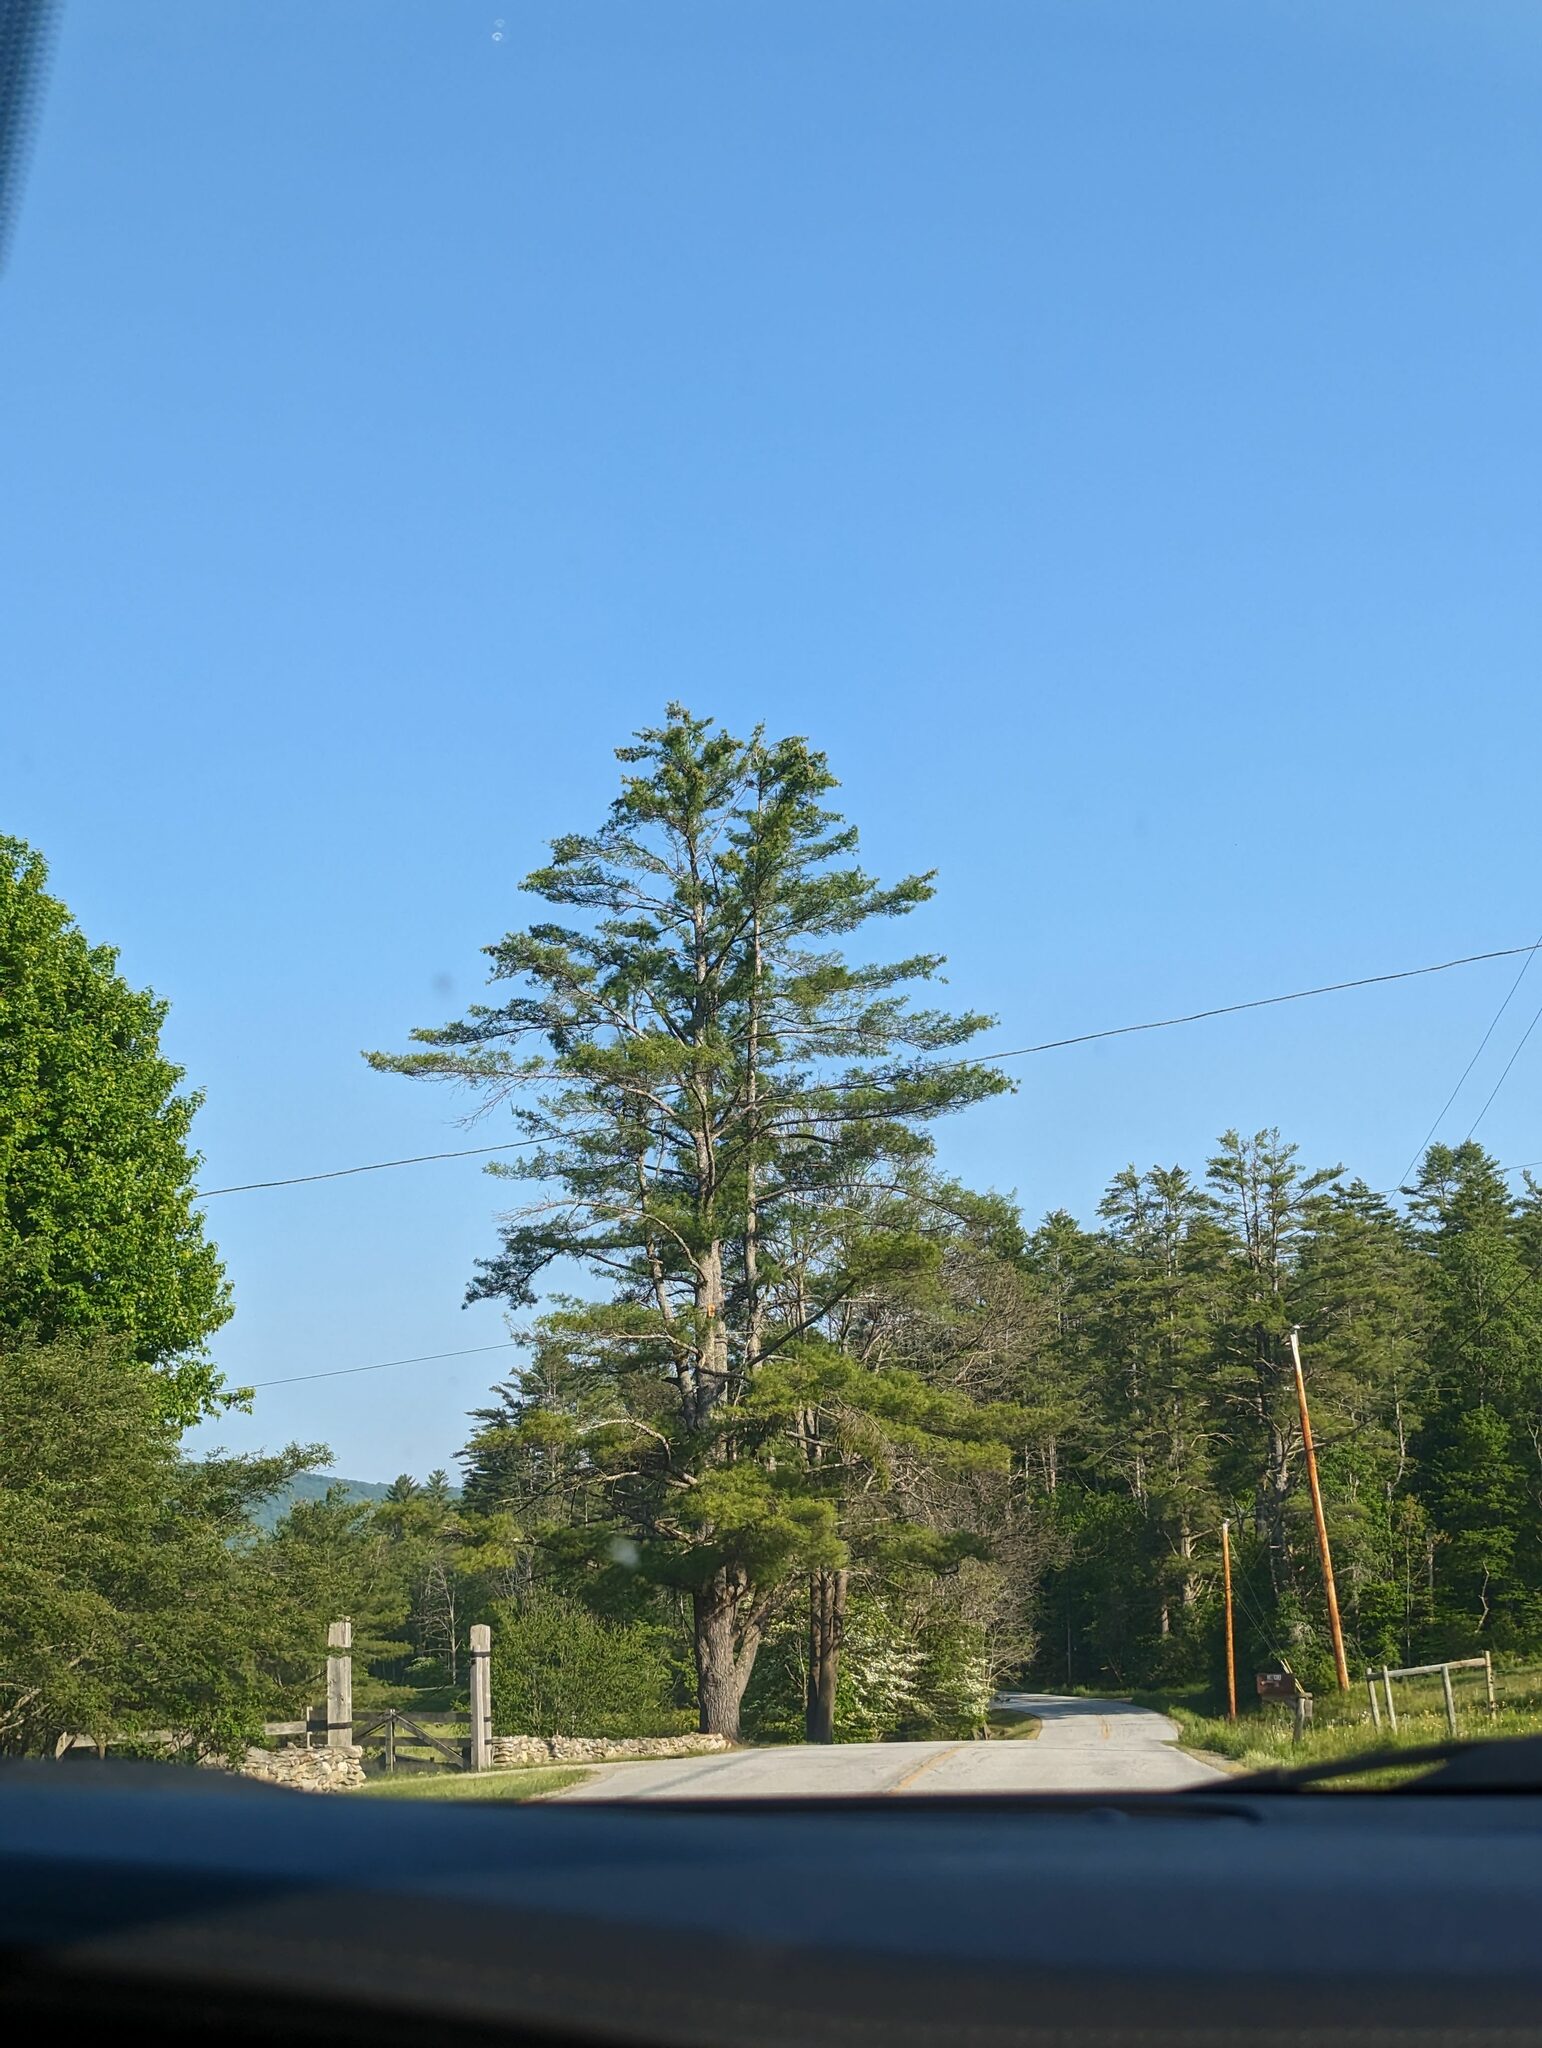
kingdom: Plantae
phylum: Tracheophyta
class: Pinopsida
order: Pinales
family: Pinaceae
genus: Pinus
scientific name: Pinus strobus
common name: Weymouth pine
